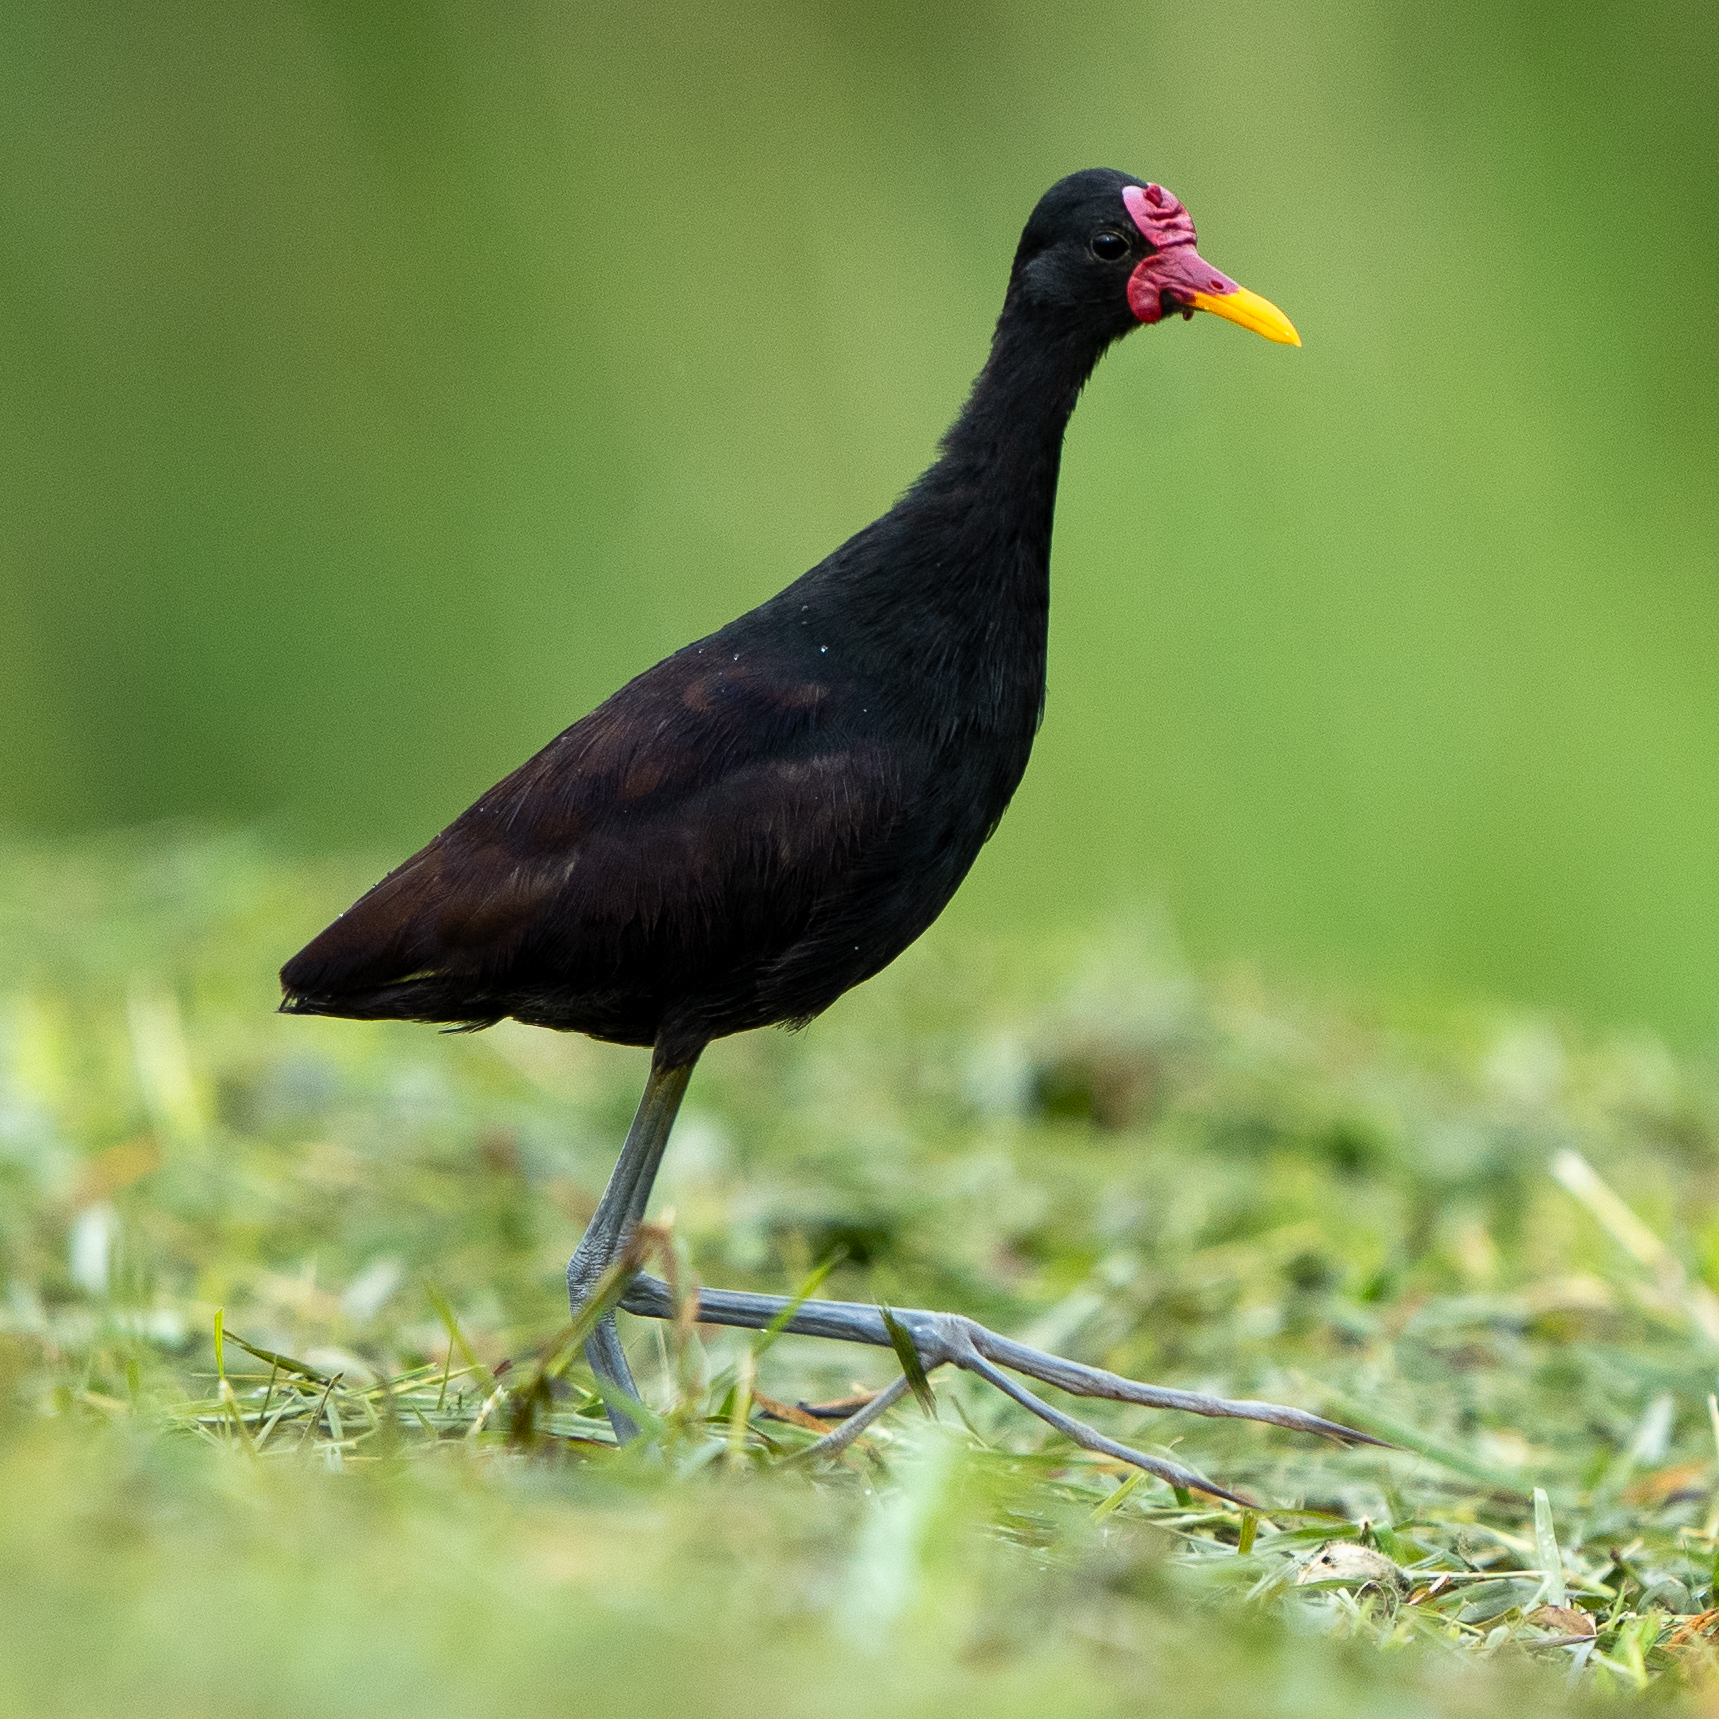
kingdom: Animalia
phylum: Chordata
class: Aves
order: Charadriiformes
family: Jacanidae
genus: Jacana
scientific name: Jacana jacana
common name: Wattled jacana
